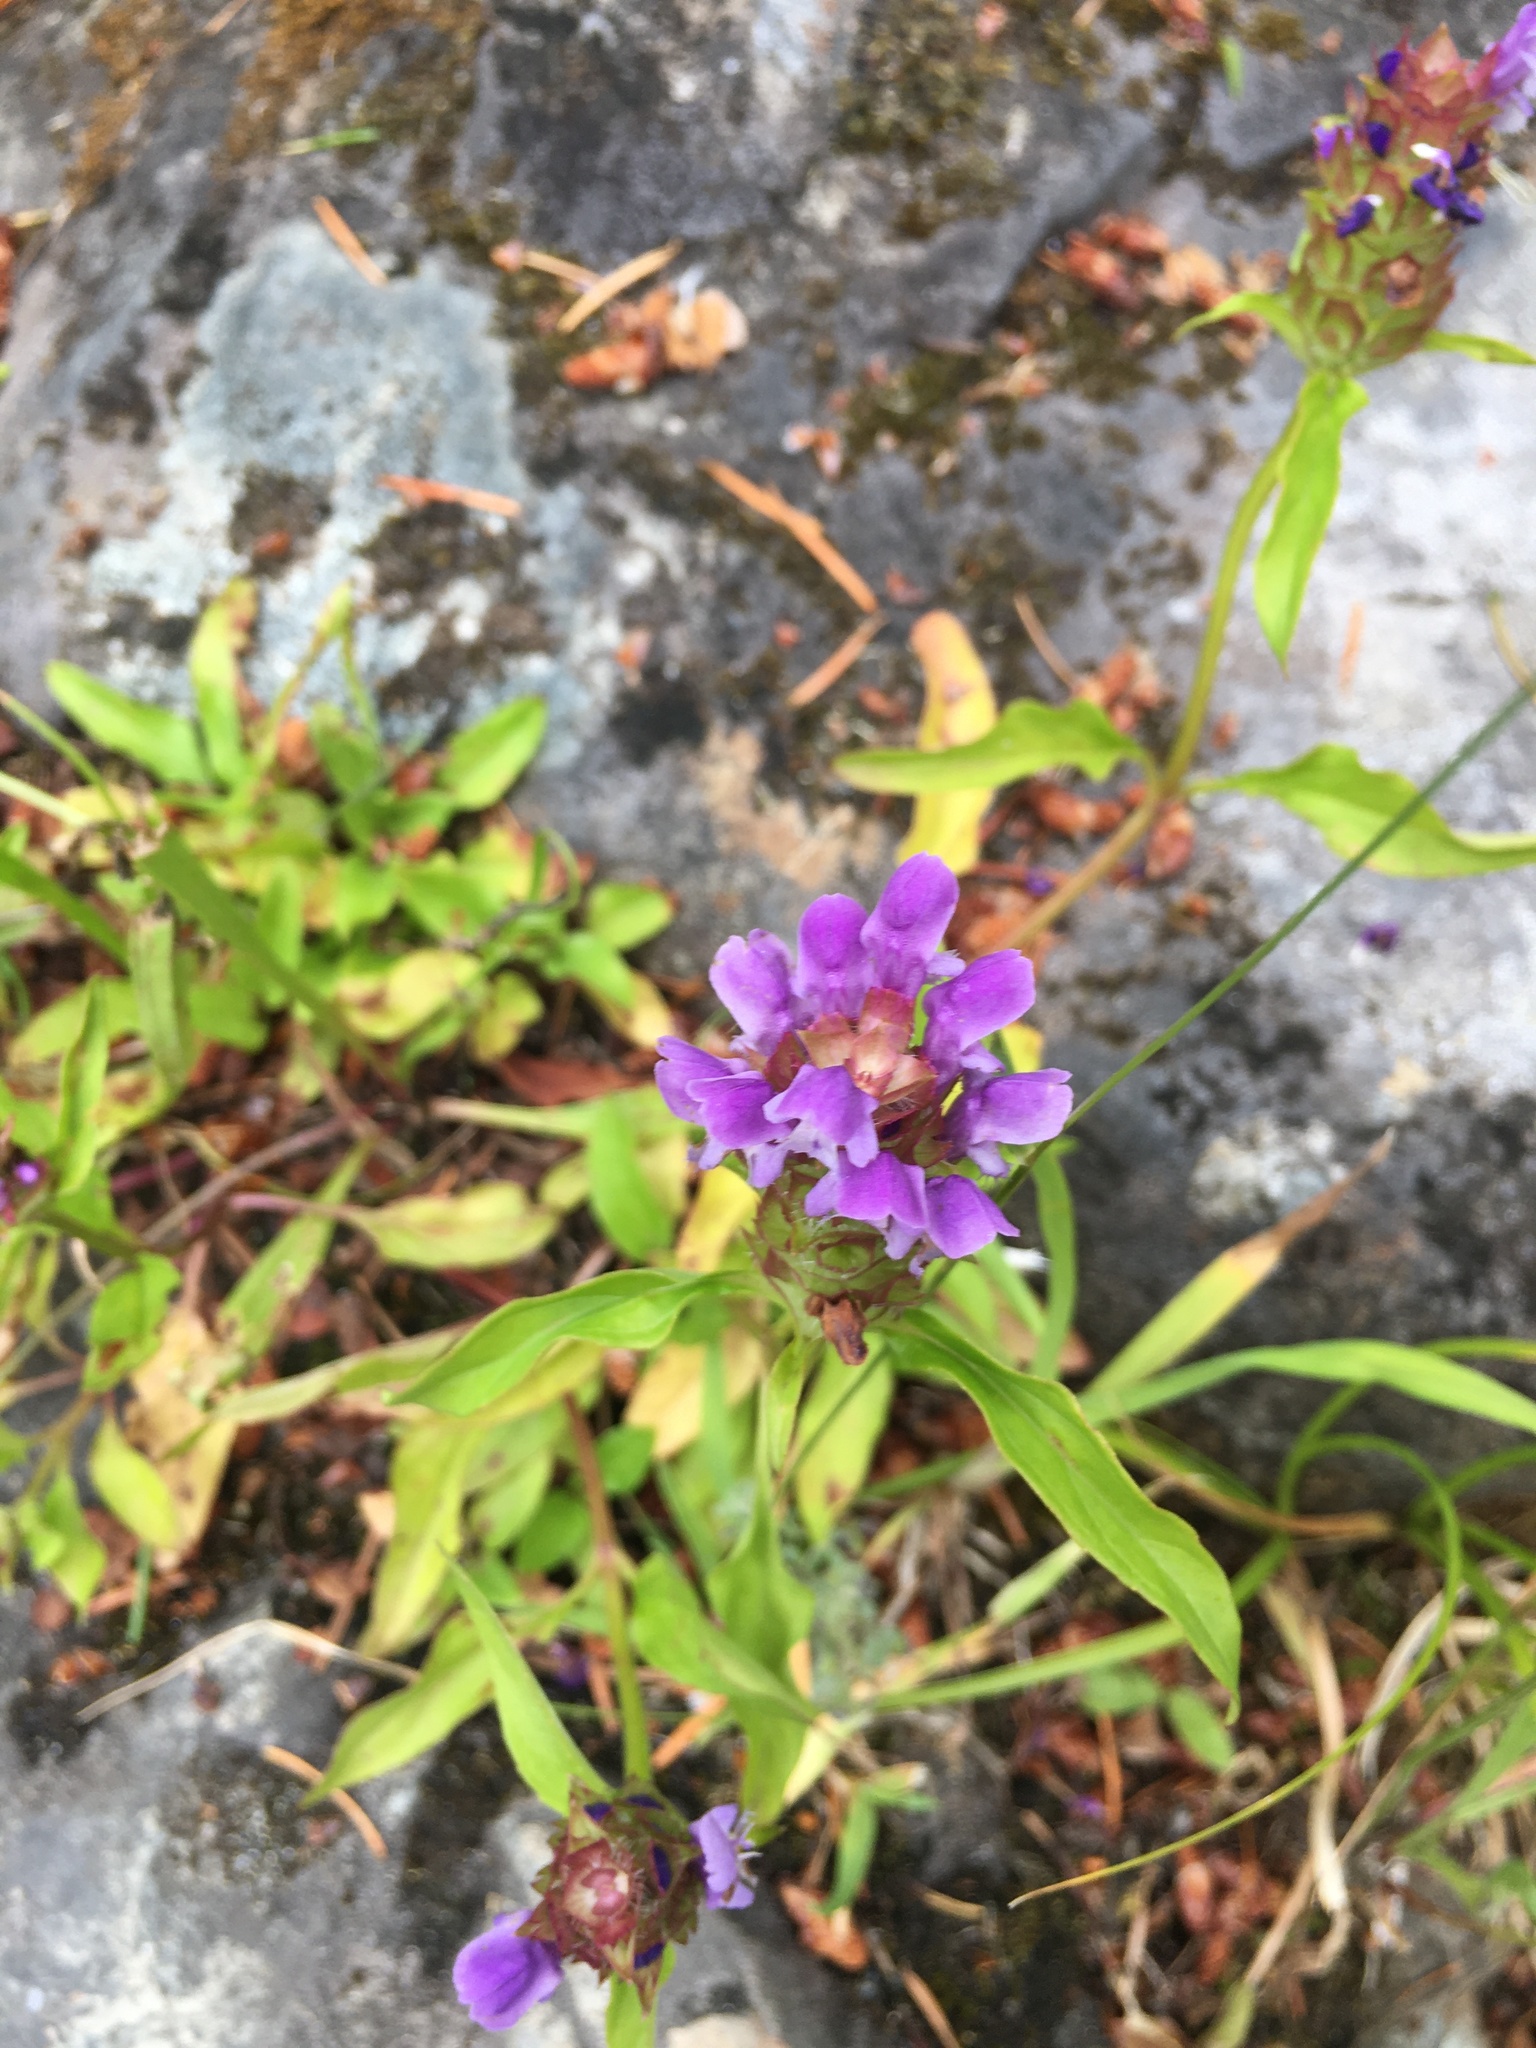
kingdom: Plantae
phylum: Tracheophyta
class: Magnoliopsida
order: Lamiales
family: Lamiaceae
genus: Prunella
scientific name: Prunella vulgaris
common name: Heal-all
